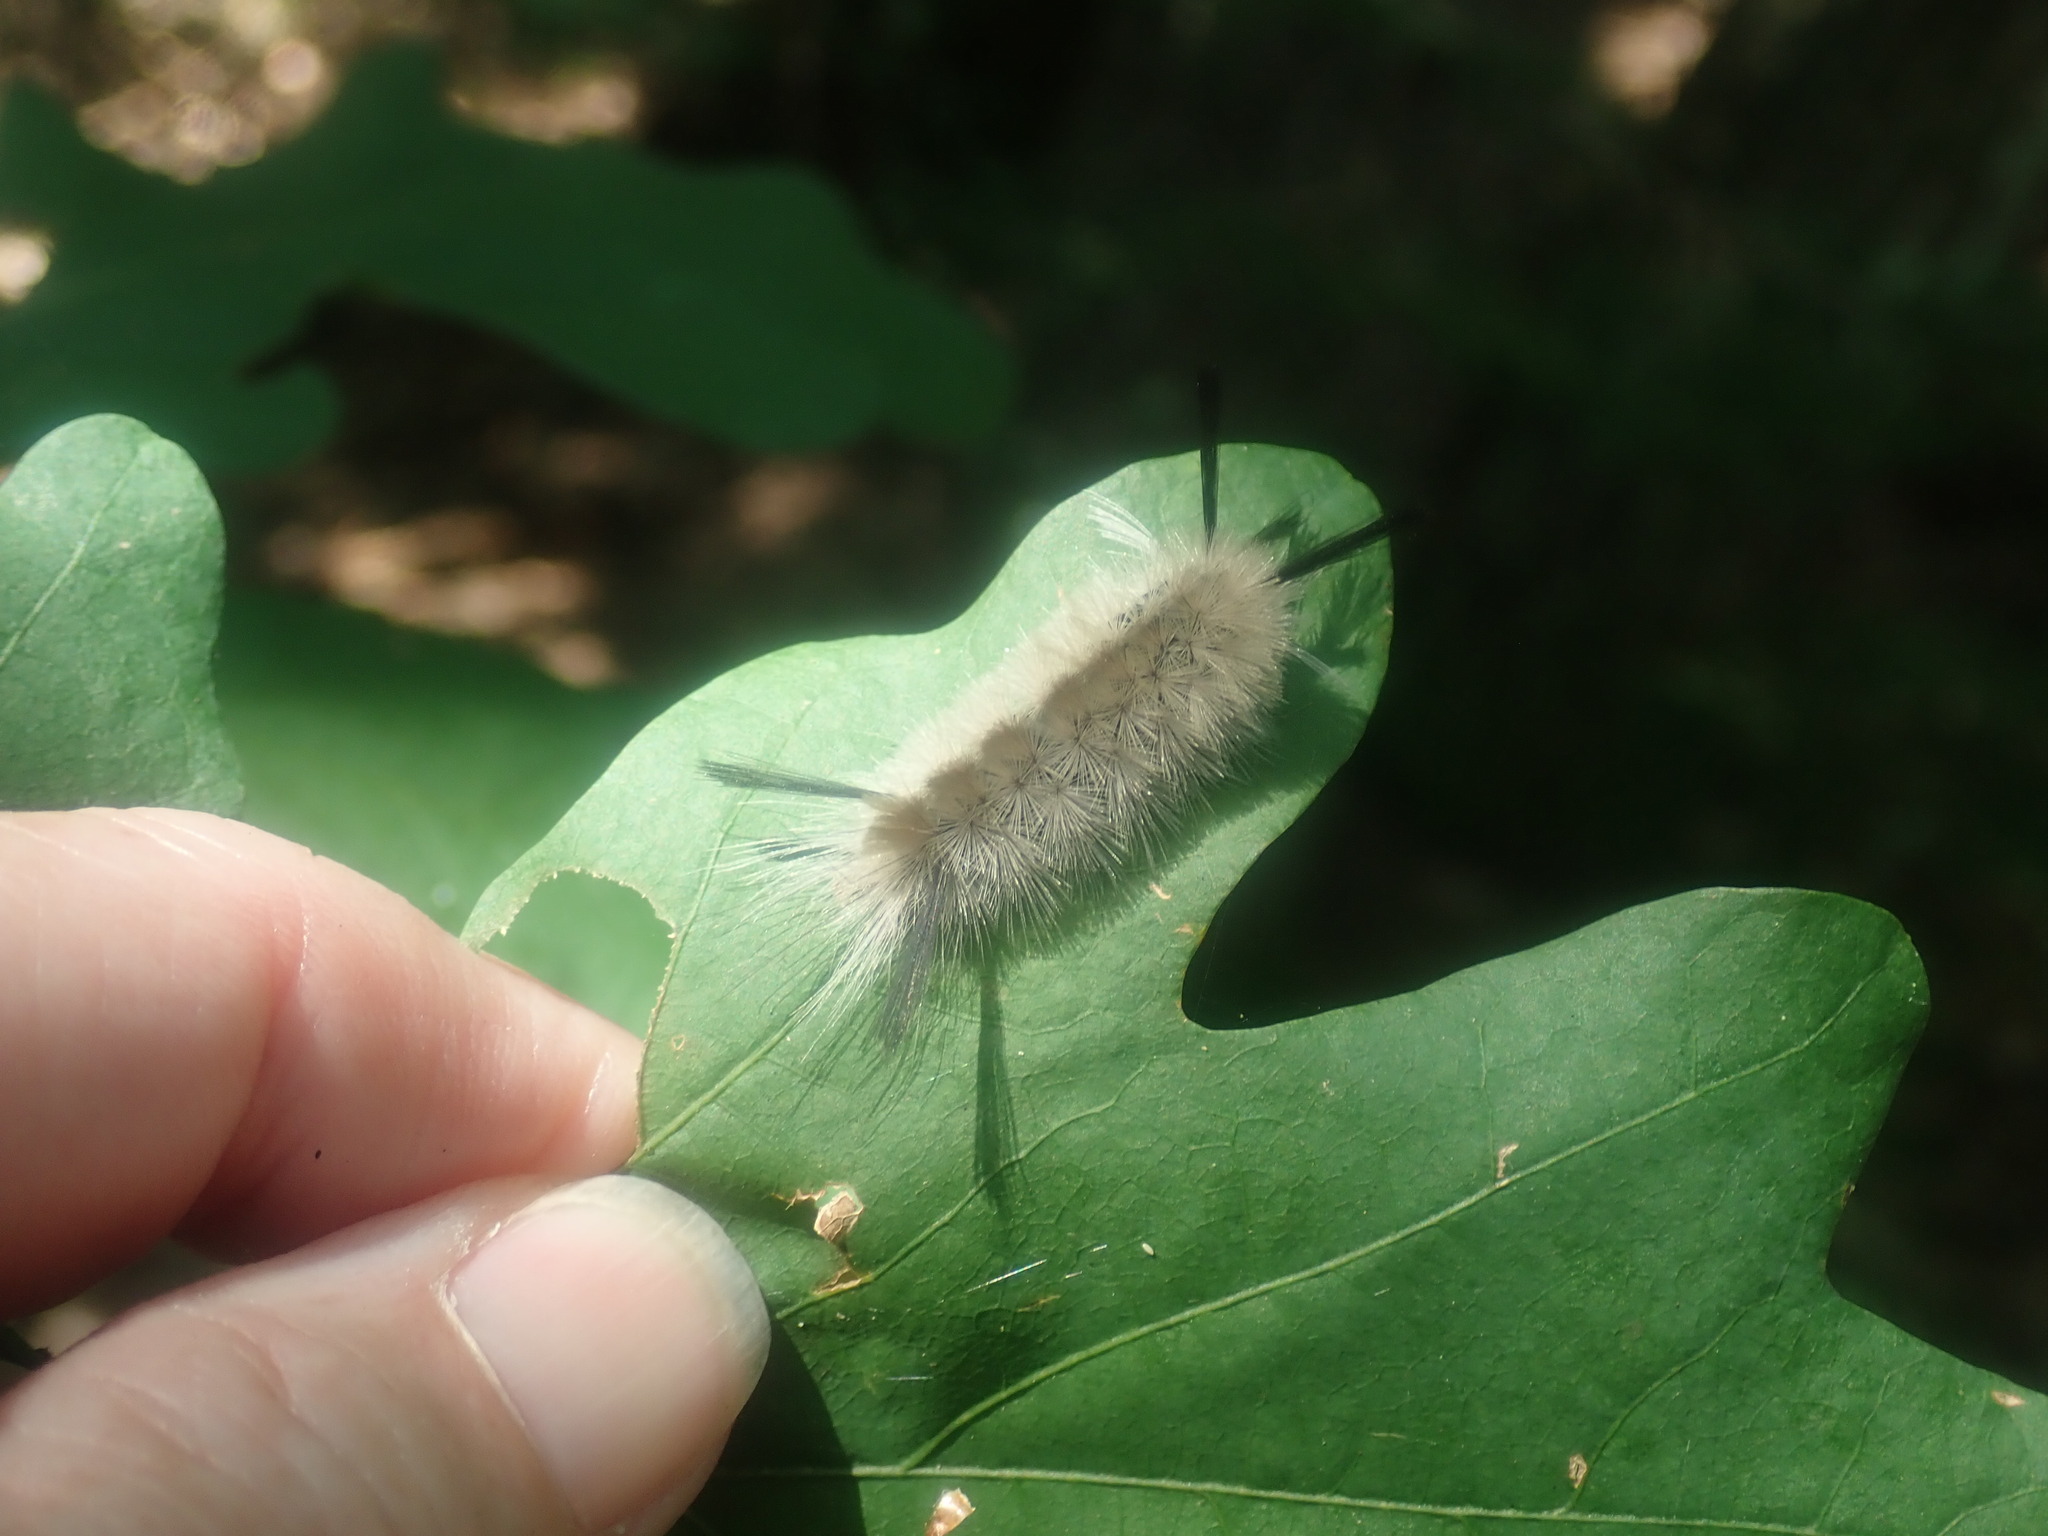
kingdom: Animalia
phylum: Arthropoda
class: Insecta
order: Lepidoptera
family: Erebidae
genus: Halysidota
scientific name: Halysidota tessellaris
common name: Banded tussock moth
